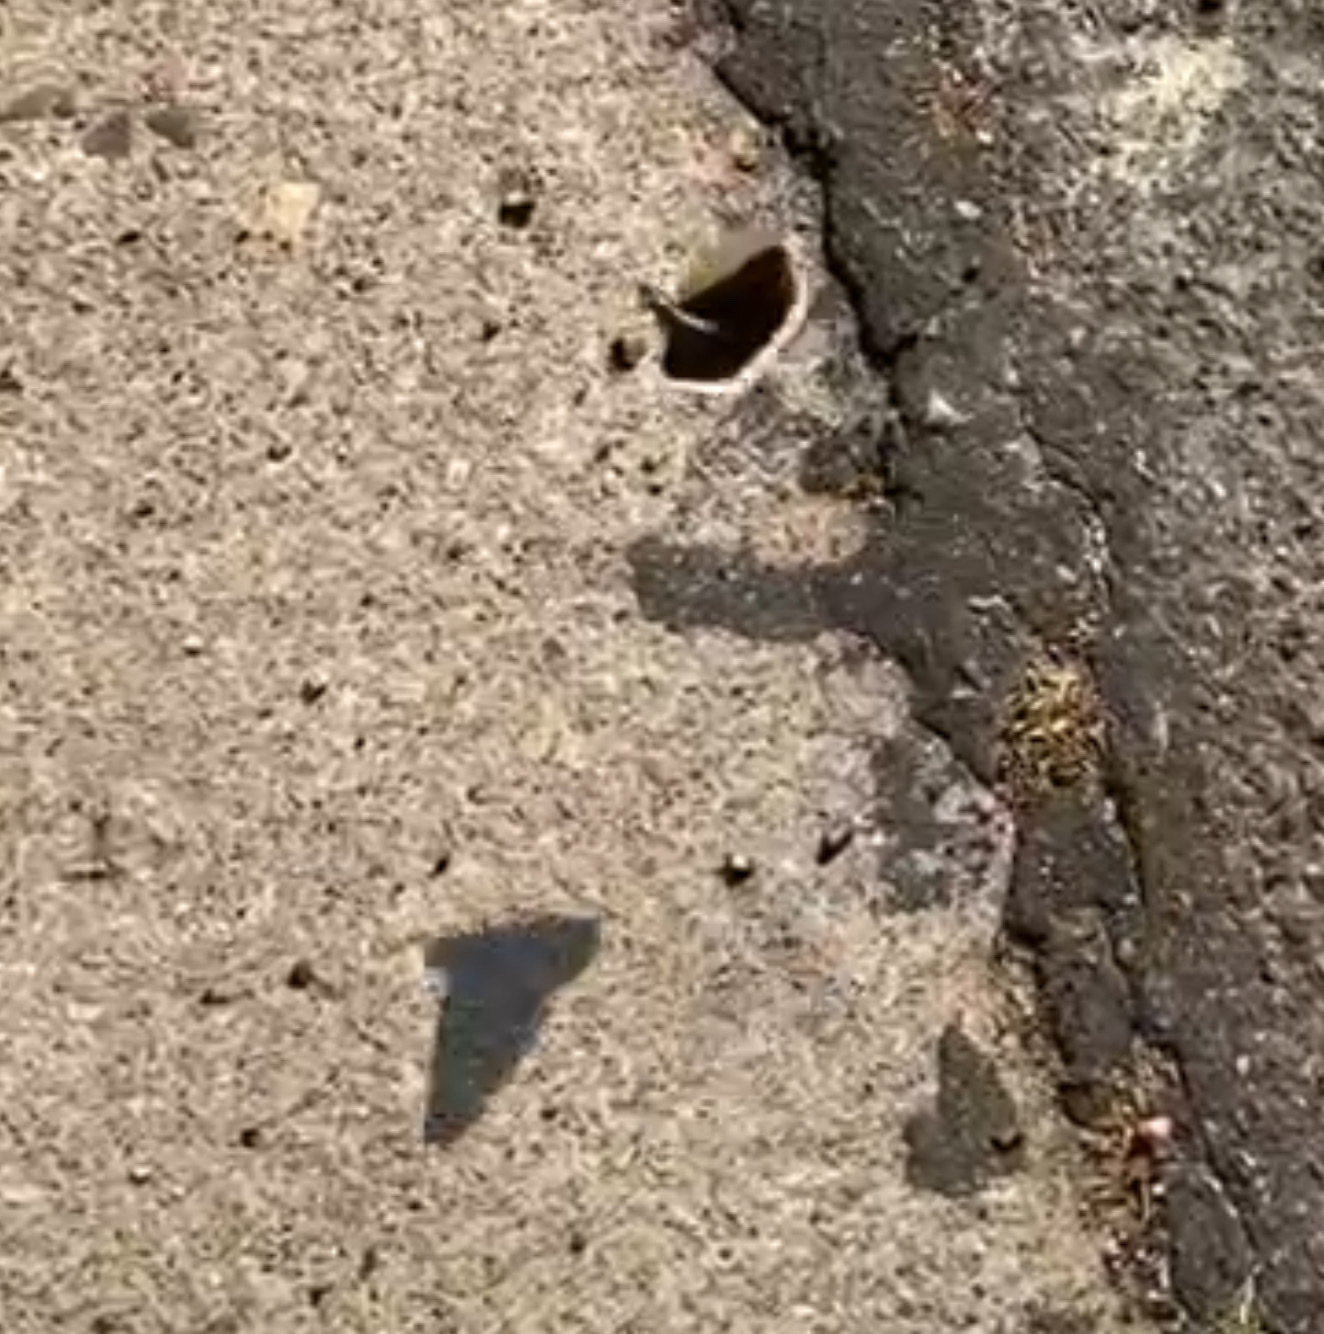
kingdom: Animalia
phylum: Arthropoda
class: Insecta
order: Orthoptera
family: Acrididae
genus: Dissosteira
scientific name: Dissosteira carolina
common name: Carolina grasshopper
